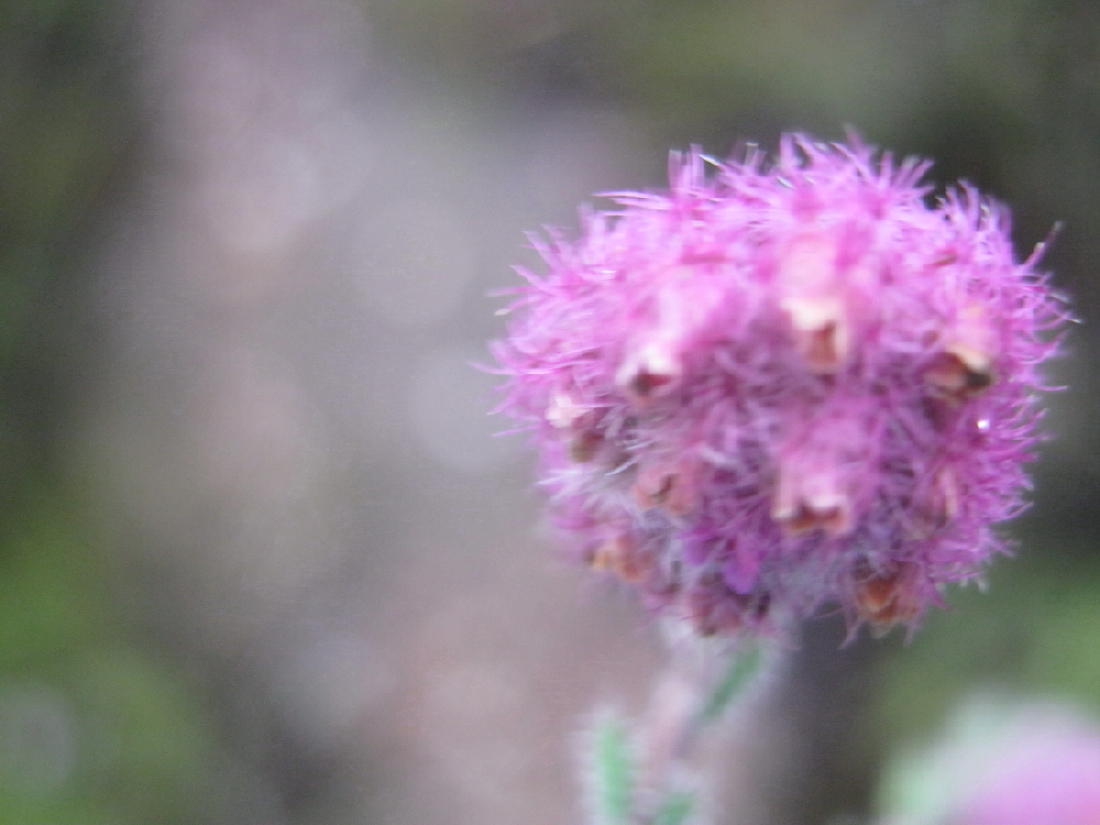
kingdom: Plantae
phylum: Tracheophyta
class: Magnoliopsida
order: Ericales
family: Ericaceae
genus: Erica
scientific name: Erica solandra
